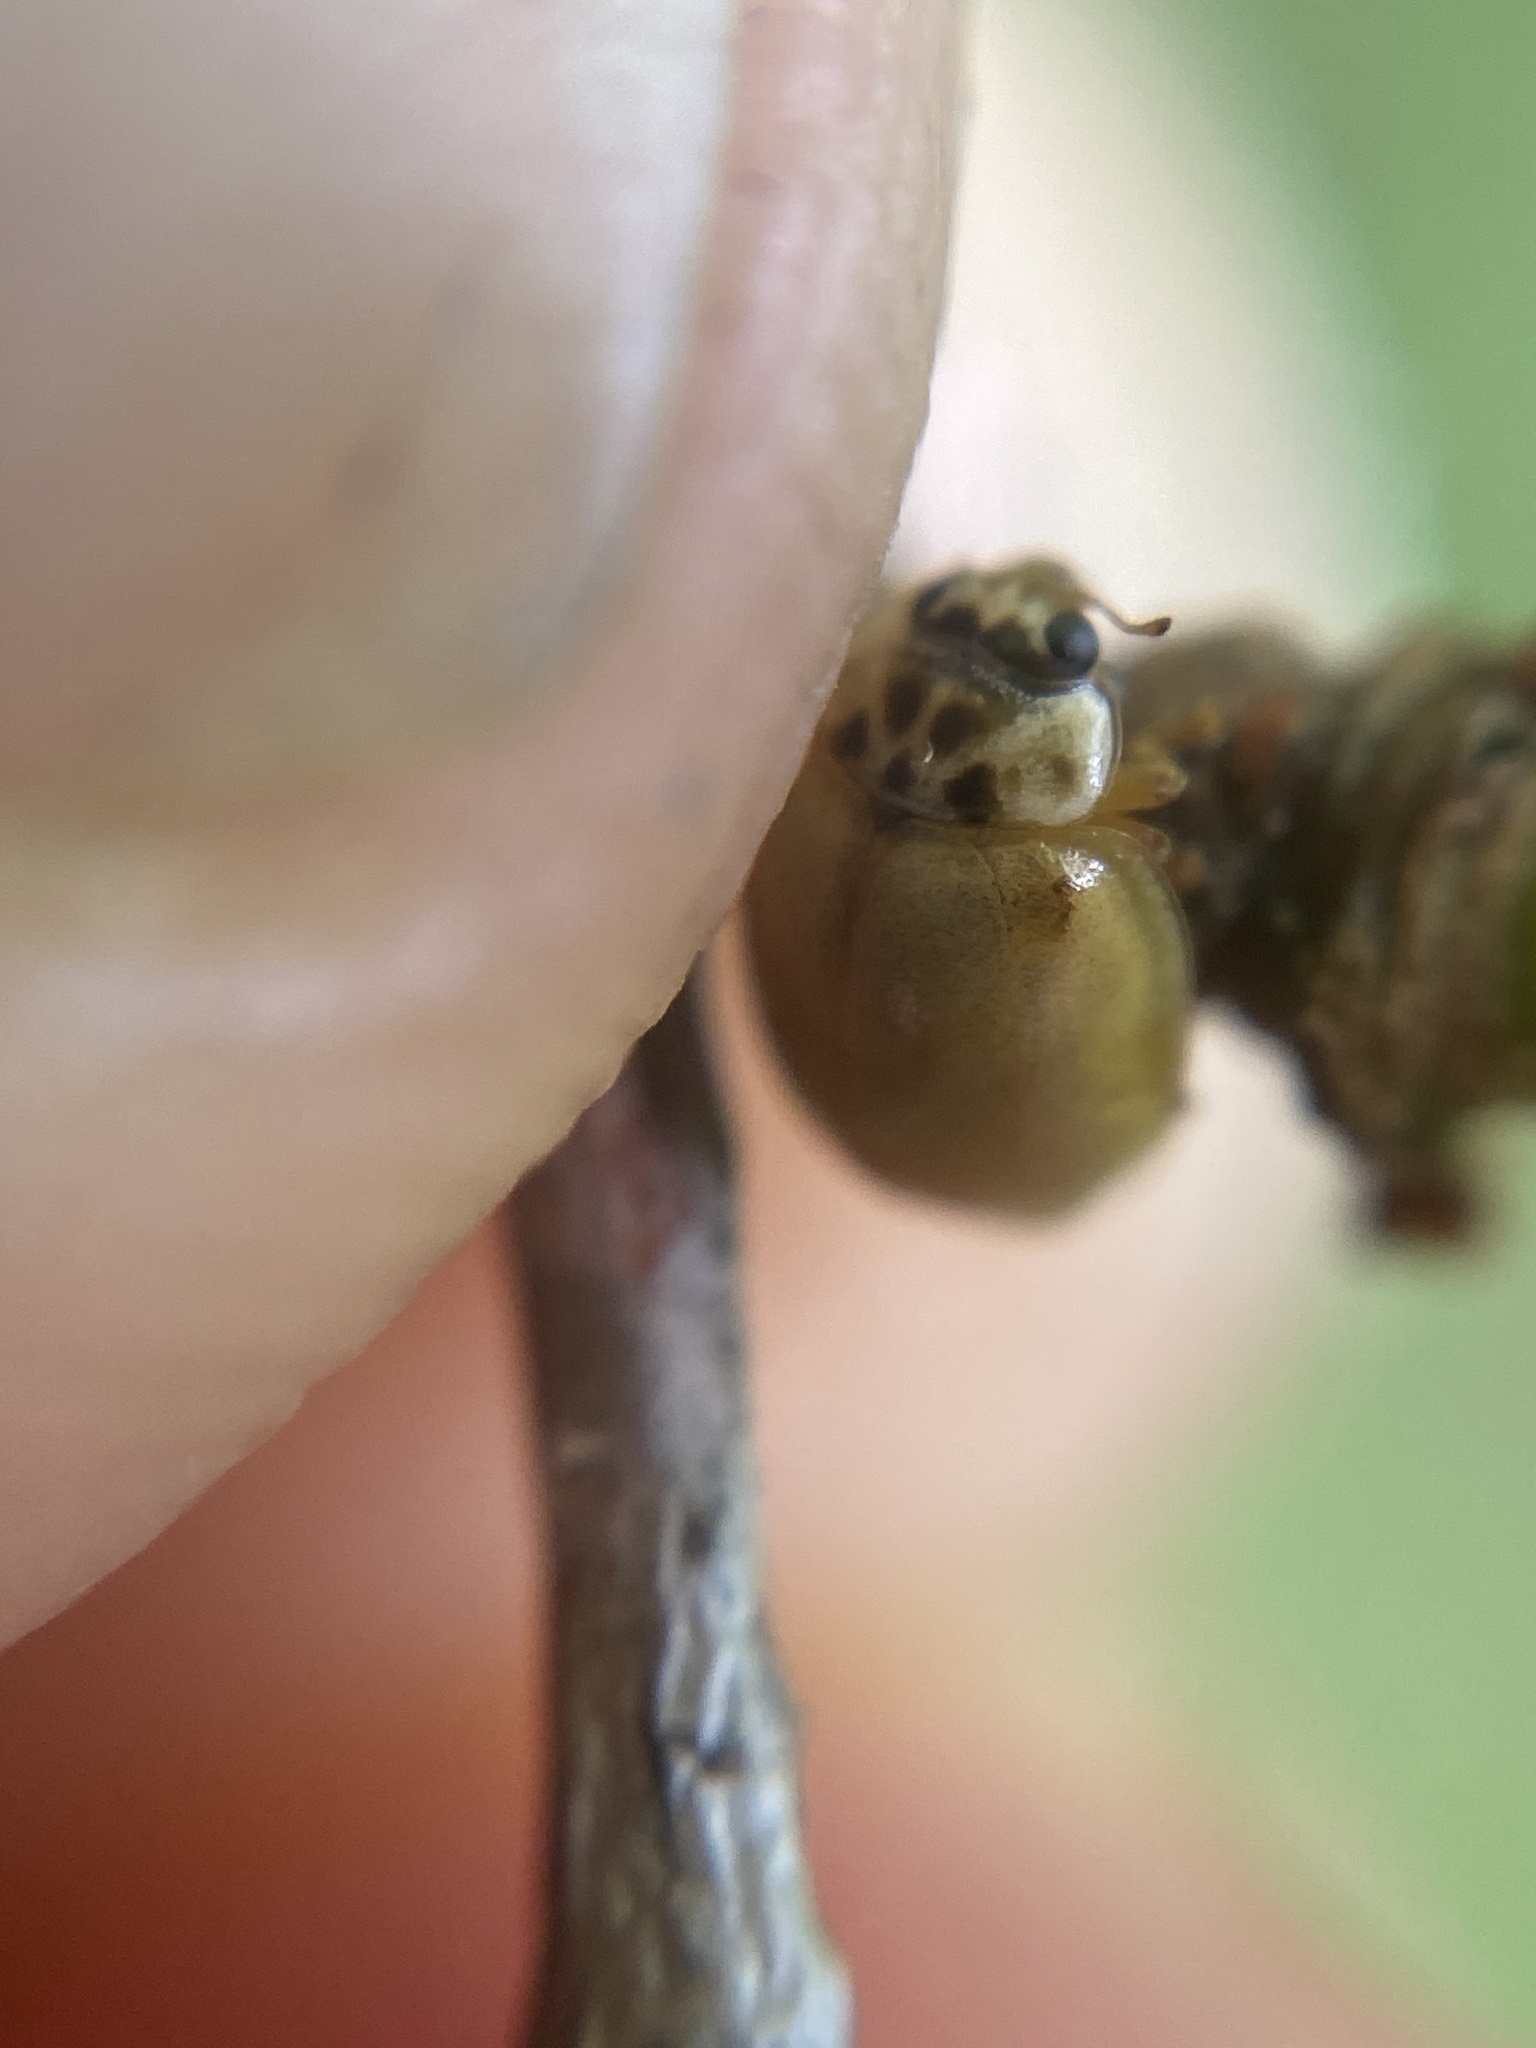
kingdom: Animalia
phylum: Arthropoda
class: Insecta
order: Coleoptera
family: Coccinellidae
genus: Adalia
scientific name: Adalia decempunctata
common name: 10-spot ladybird
